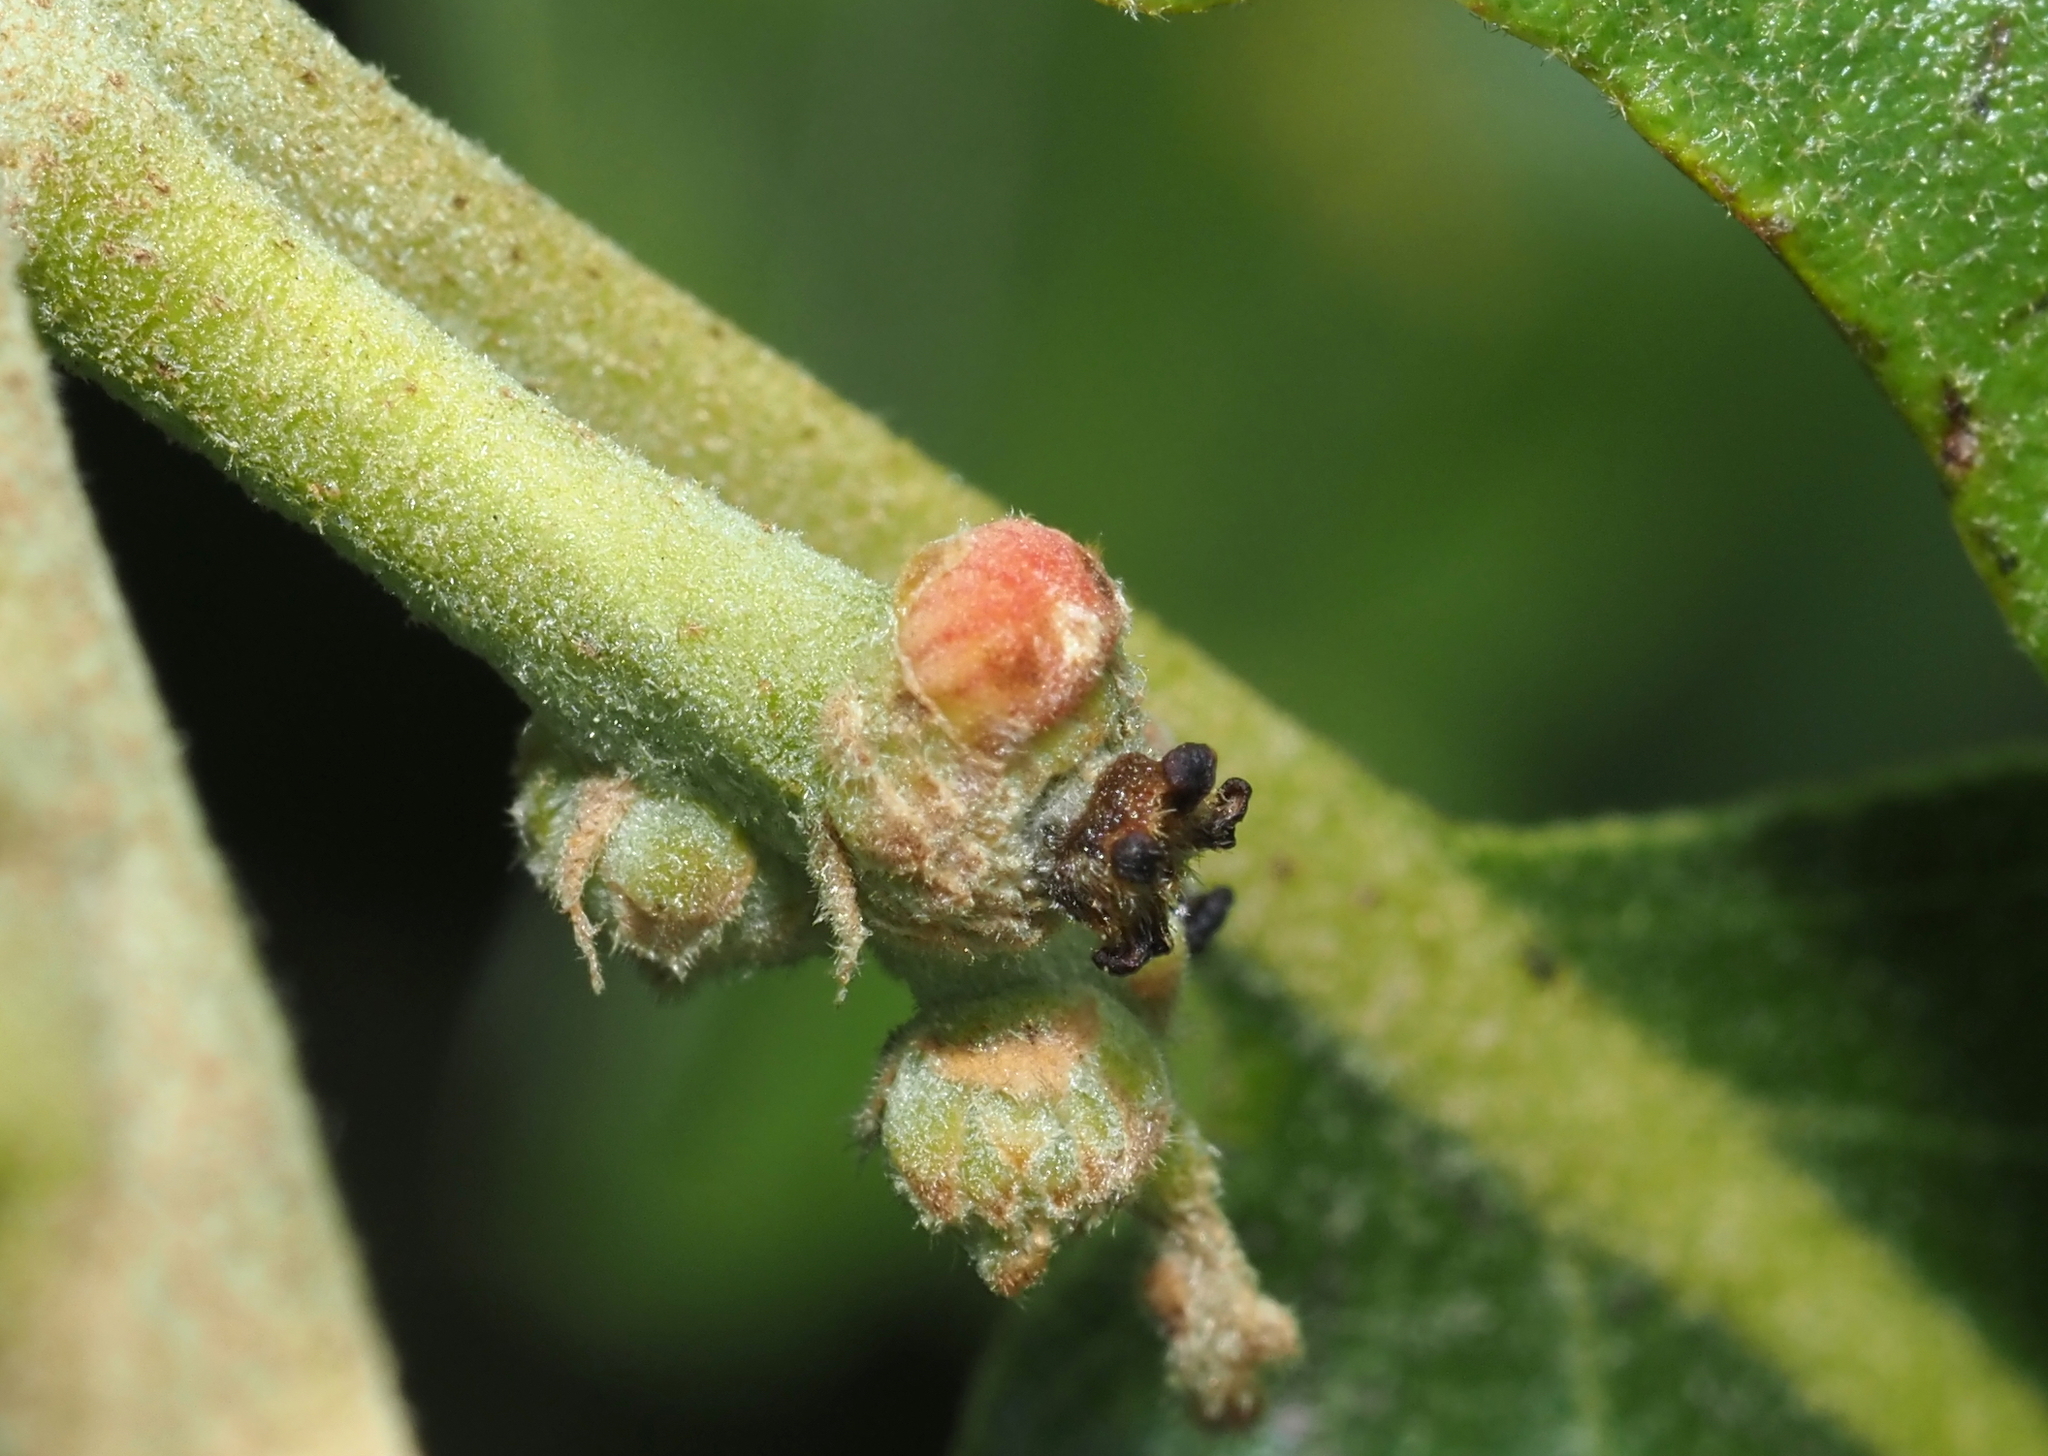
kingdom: Animalia
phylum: Arthropoda
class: Insecta
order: Hymenoptera
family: Cynipidae
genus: Callirhytis
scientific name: Callirhytis
